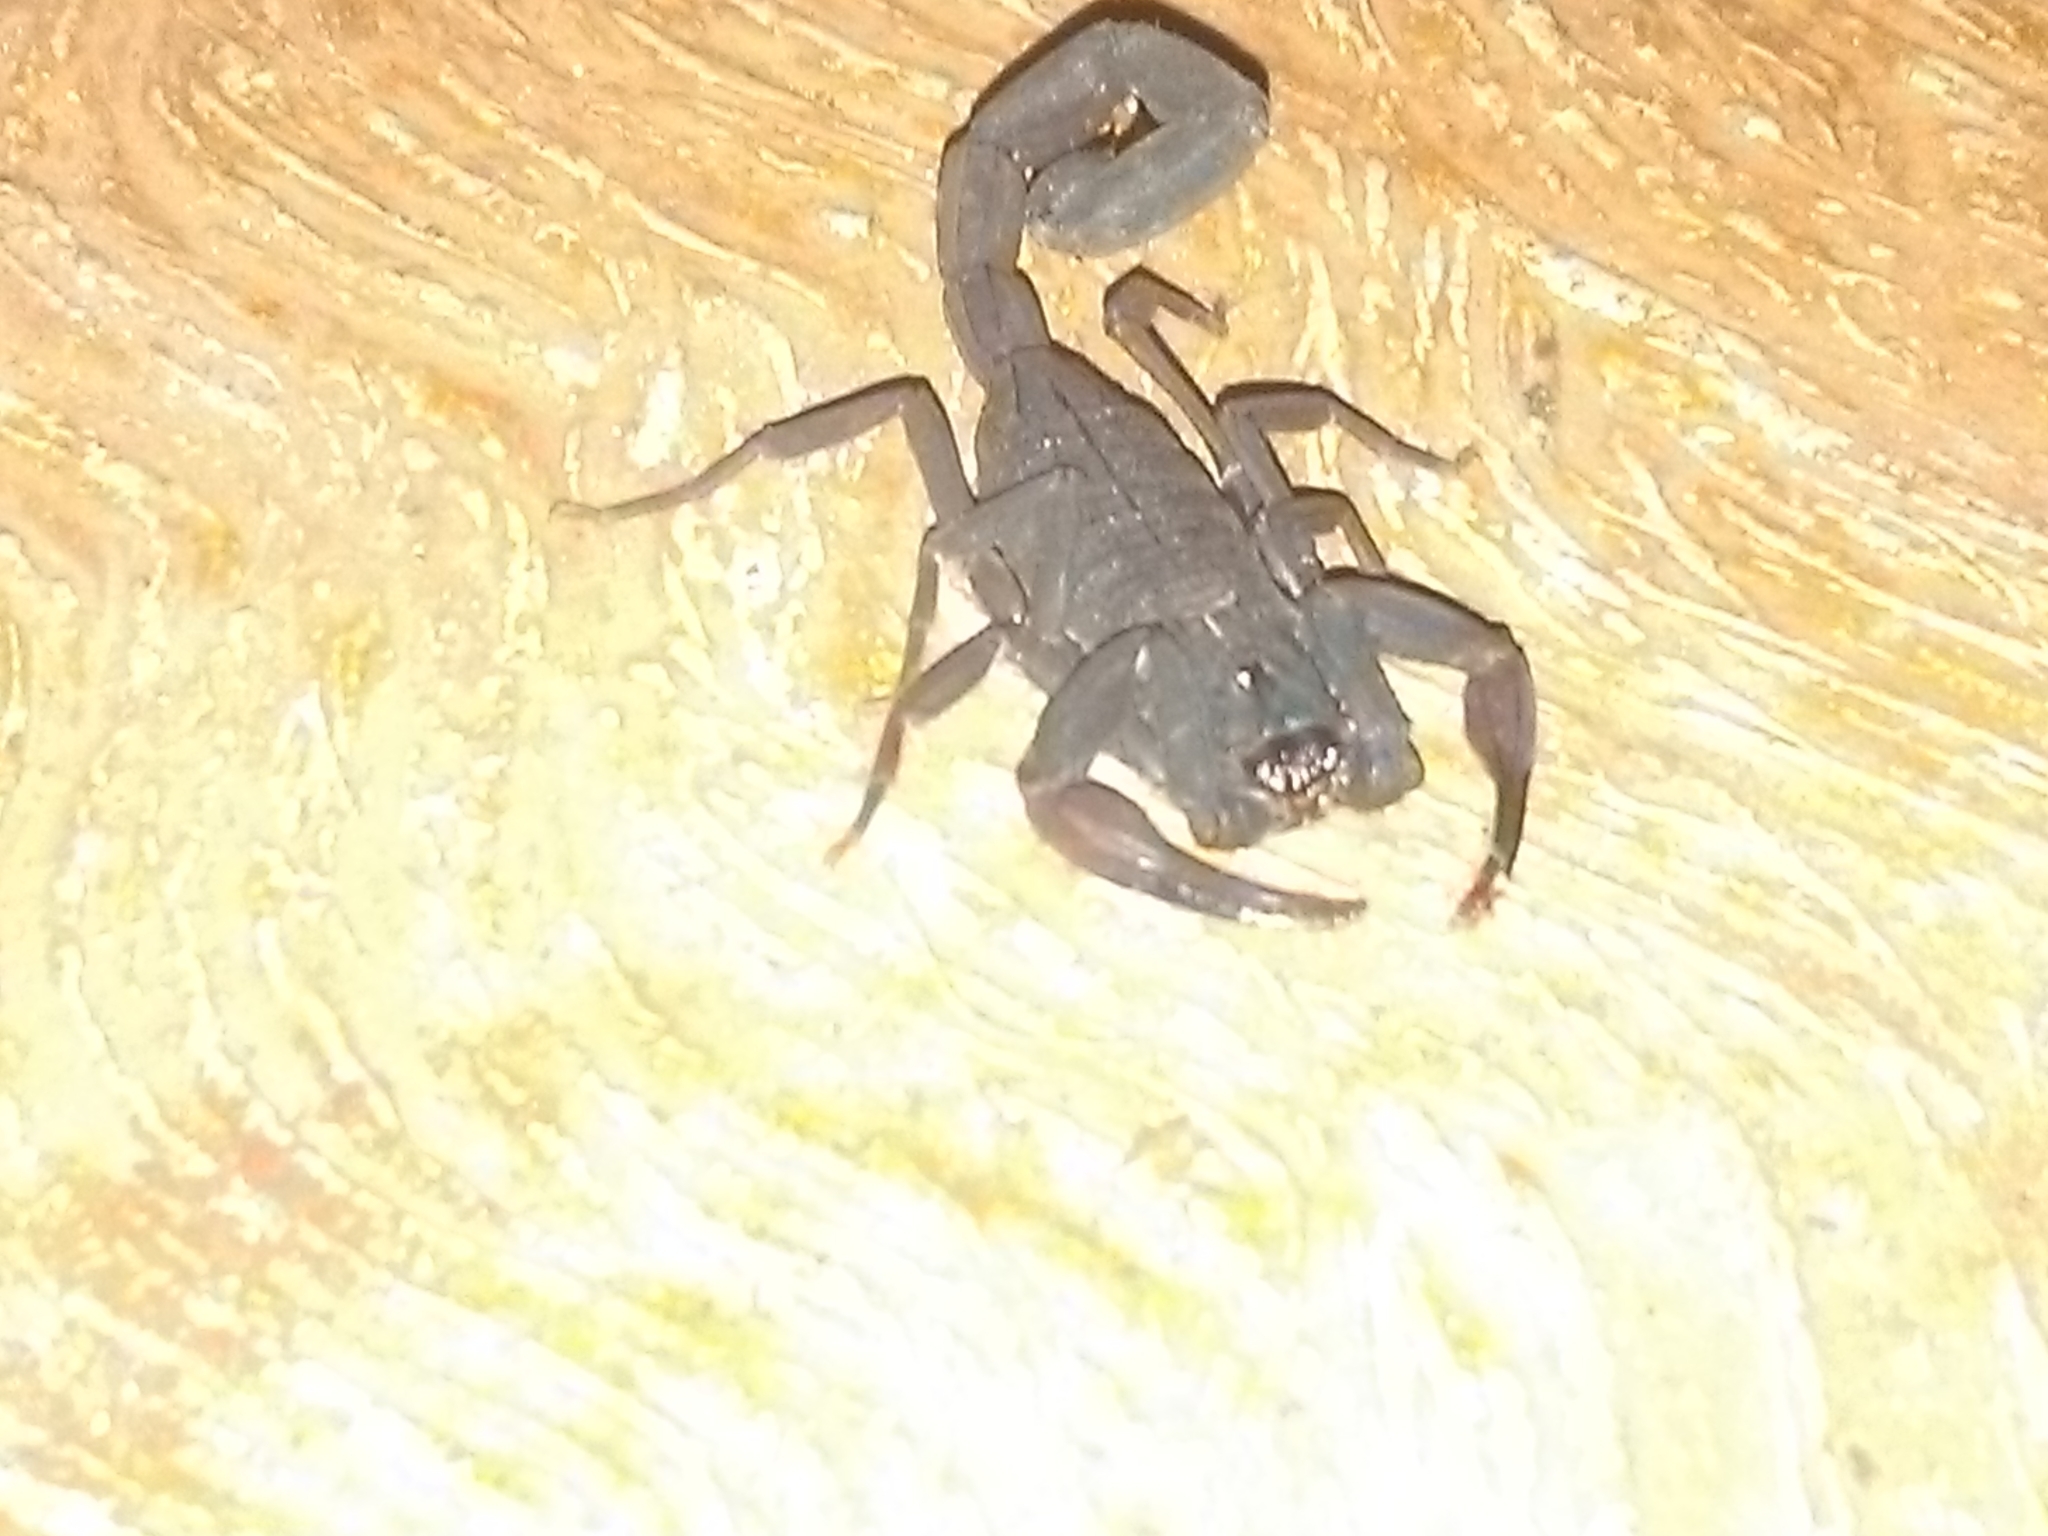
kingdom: Animalia
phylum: Arthropoda
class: Arachnida
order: Scorpiones
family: Buthidae
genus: Centruroides
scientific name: Centruroides gracilis
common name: Scorpions
